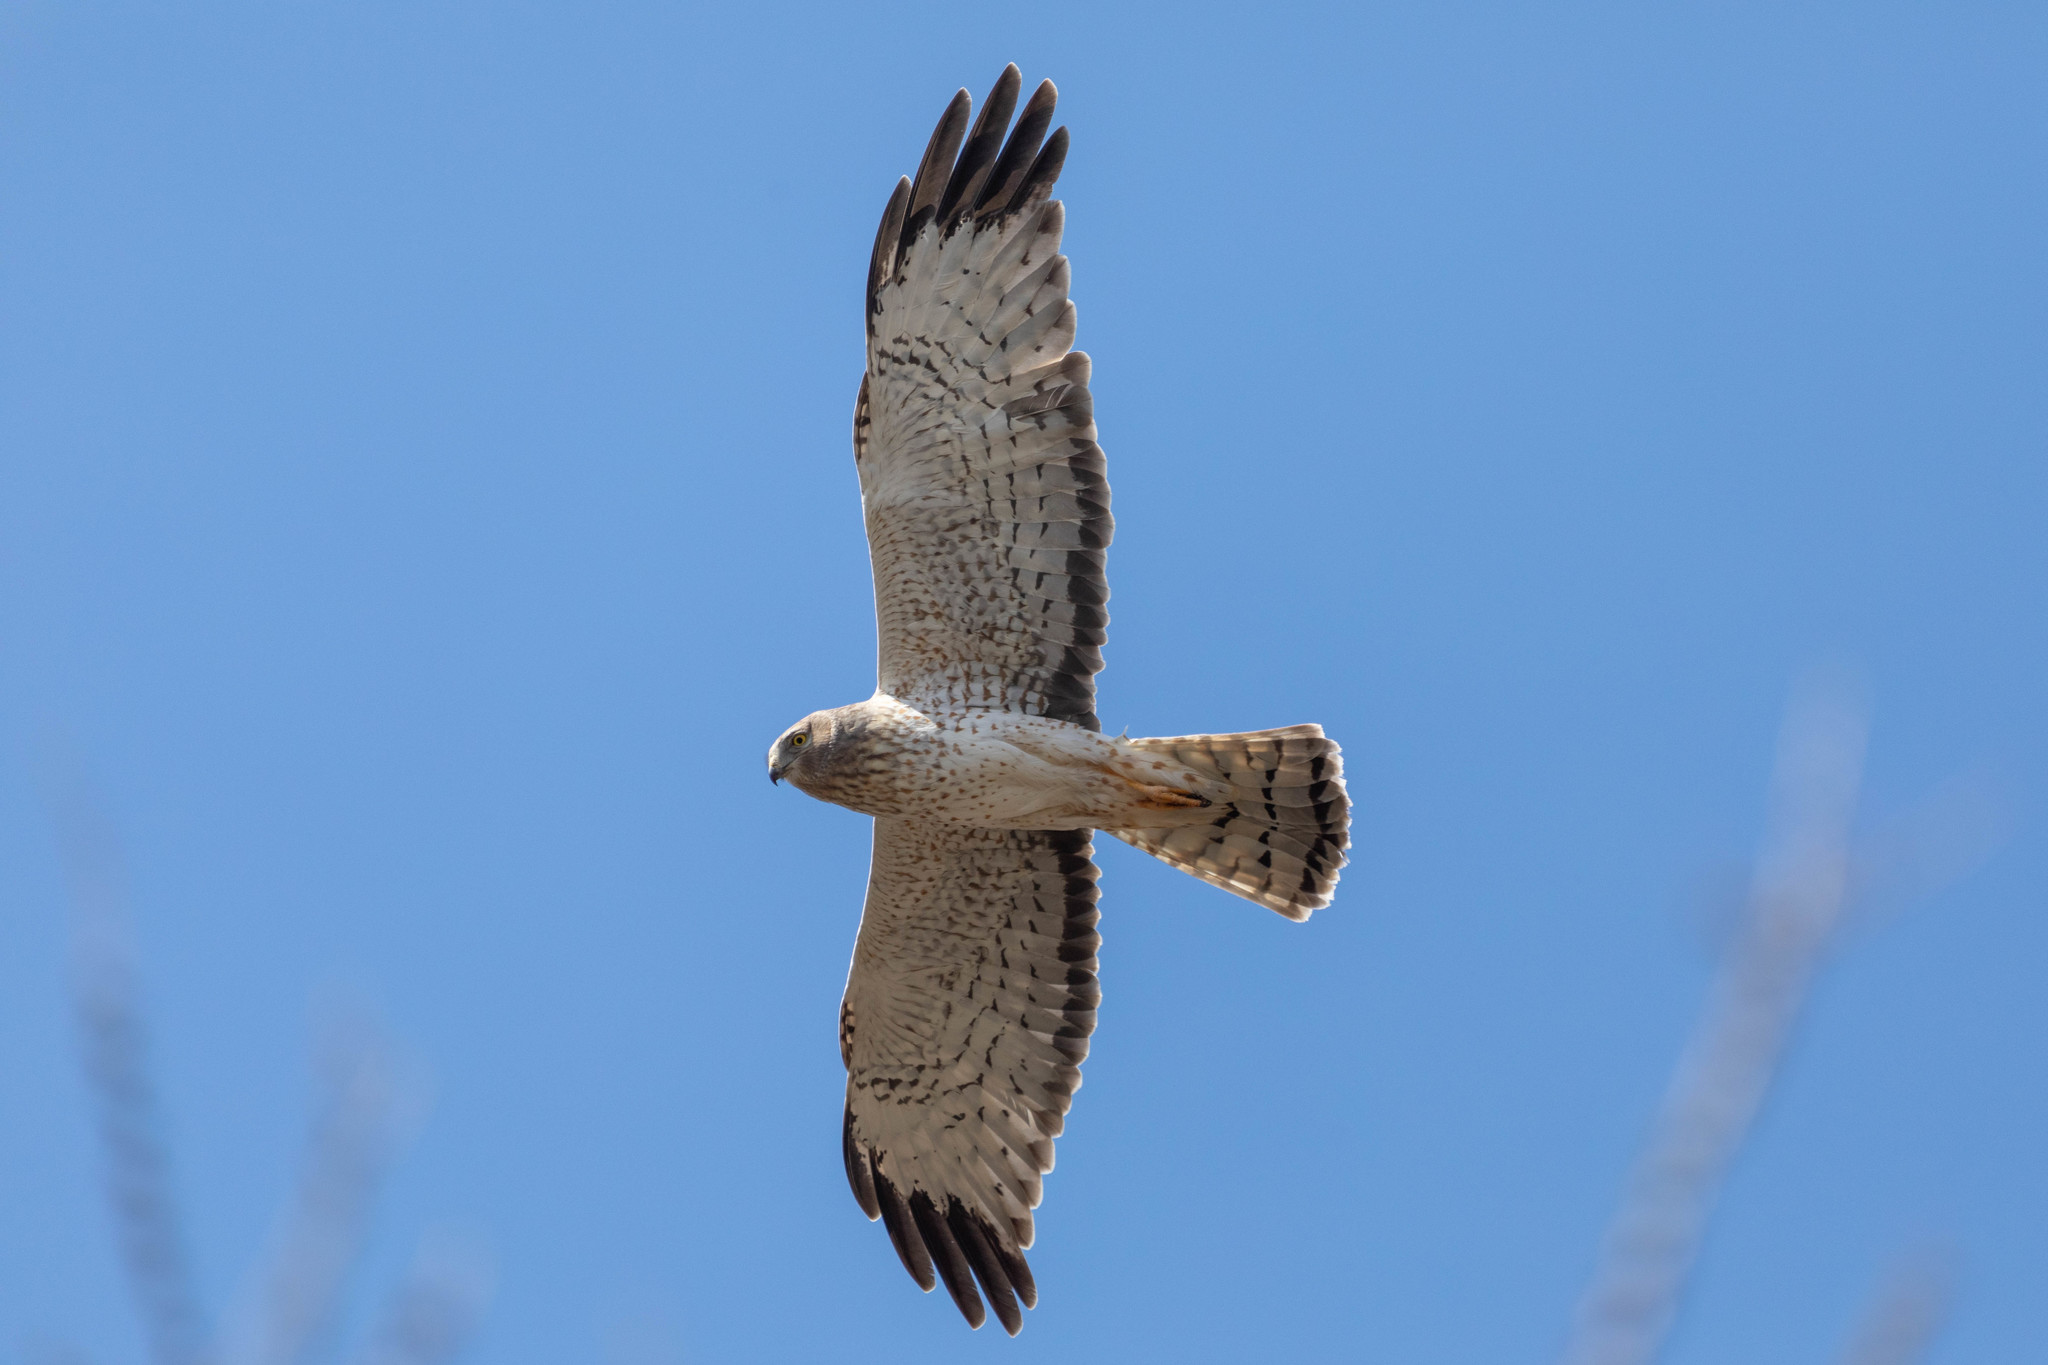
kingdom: Animalia
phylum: Chordata
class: Aves
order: Accipitriformes
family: Accipitridae
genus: Circus
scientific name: Circus cyaneus
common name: Hen harrier
